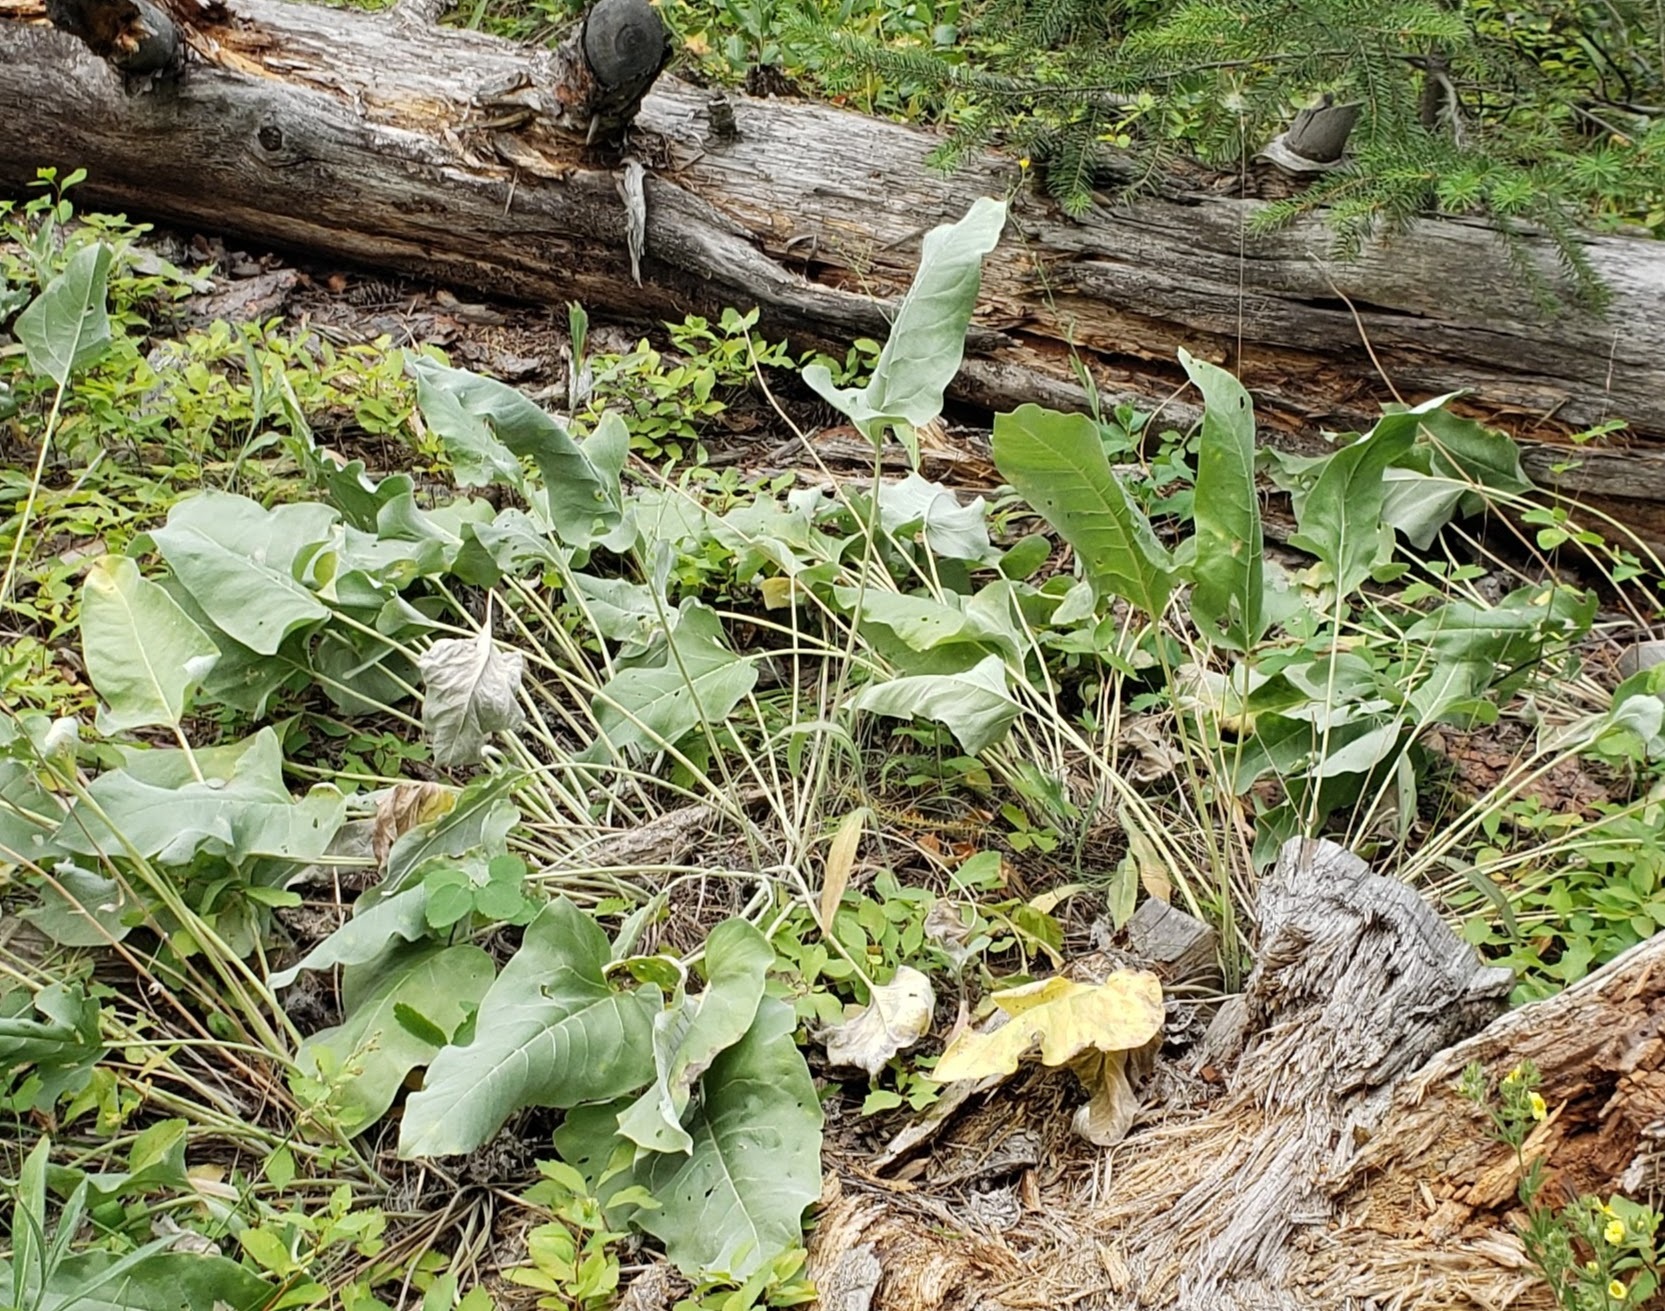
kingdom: Plantae
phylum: Tracheophyta
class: Magnoliopsida
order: Asterales
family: Asteraceae
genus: Wyethia
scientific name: Wyethia sagittata
